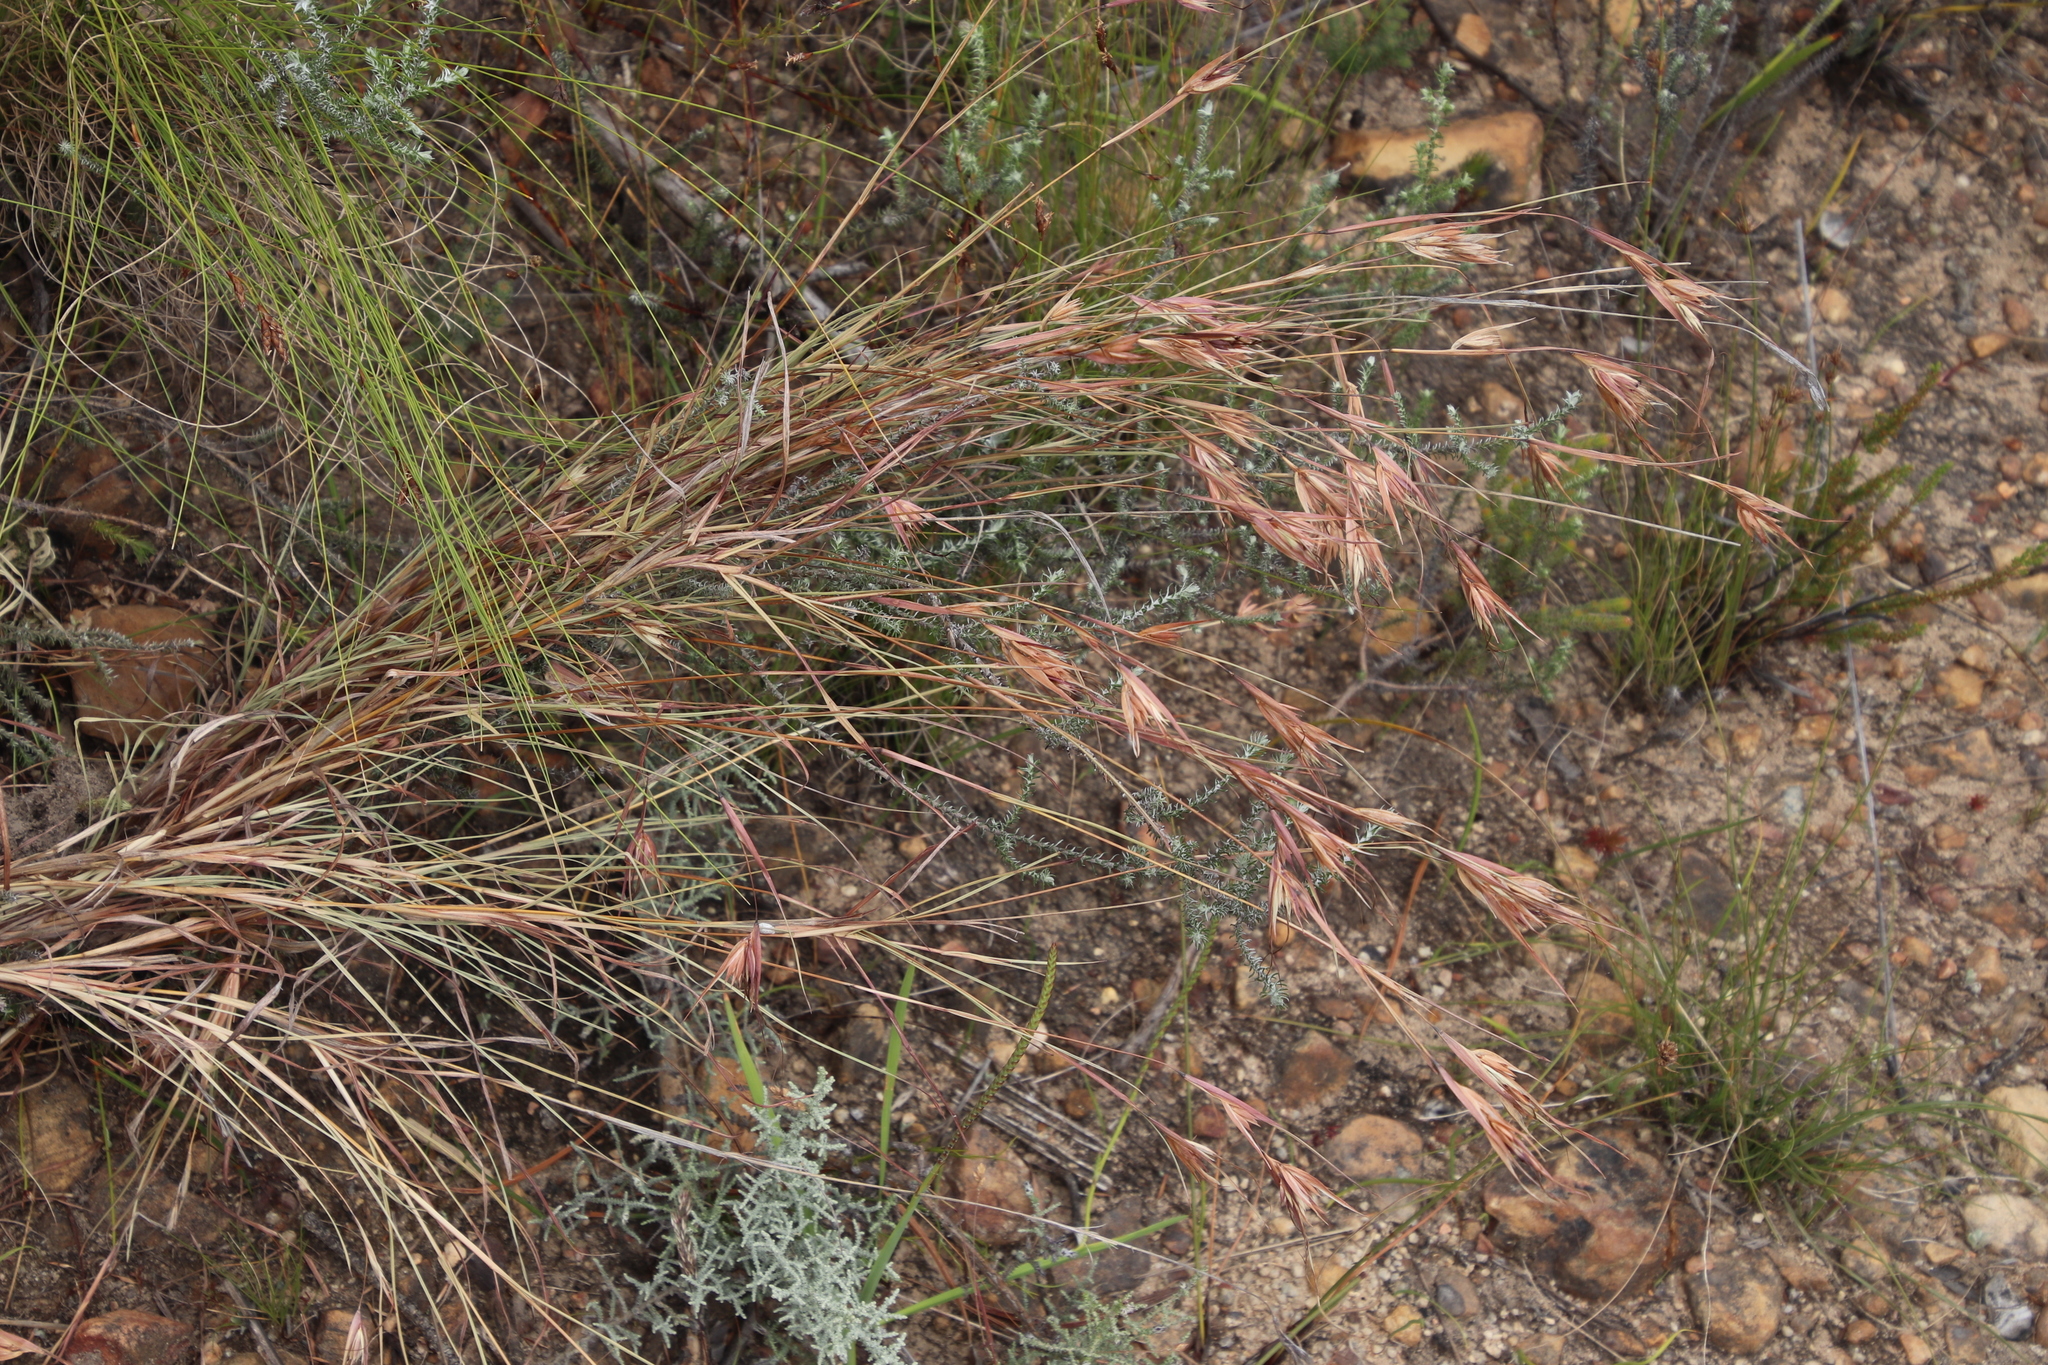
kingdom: Plantae
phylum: Tracheophyta
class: Liliopsida
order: Poales
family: Poaceae
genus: Themeda
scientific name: Themeda triandra
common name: Kangaroo grass
